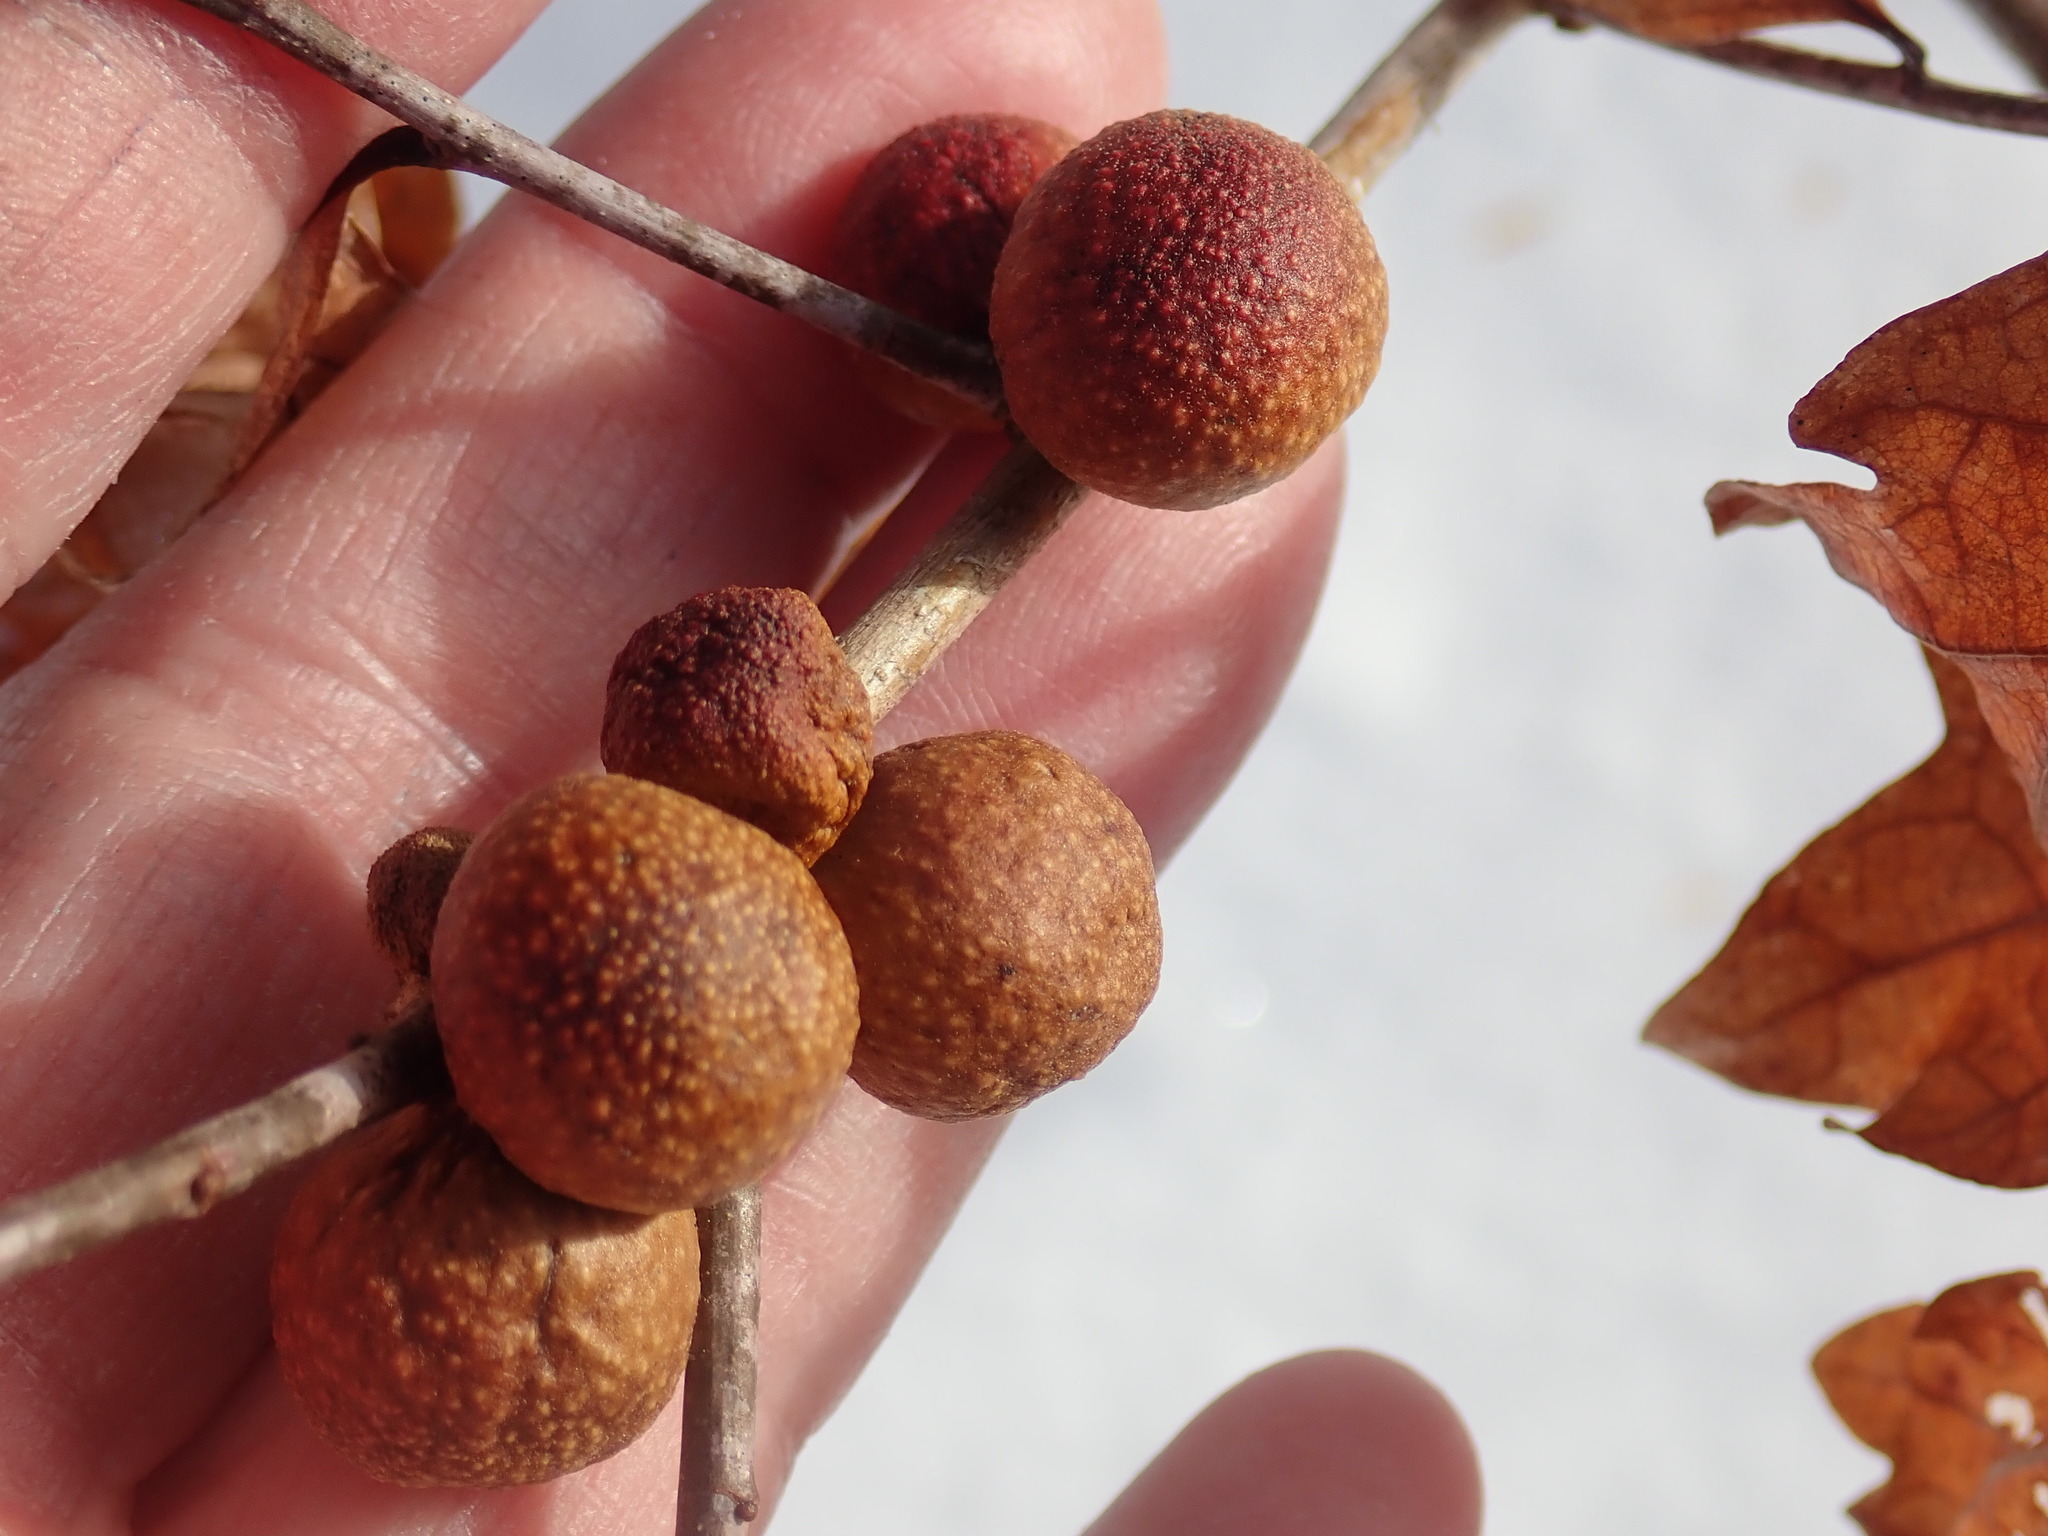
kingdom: Animalia
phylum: Arthropoda
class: Insecta
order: Hymenoptera
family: Cynipidae
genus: Disholcaspis
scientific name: Disholcaspis quercusglobulus
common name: Round bullet gall wasp
